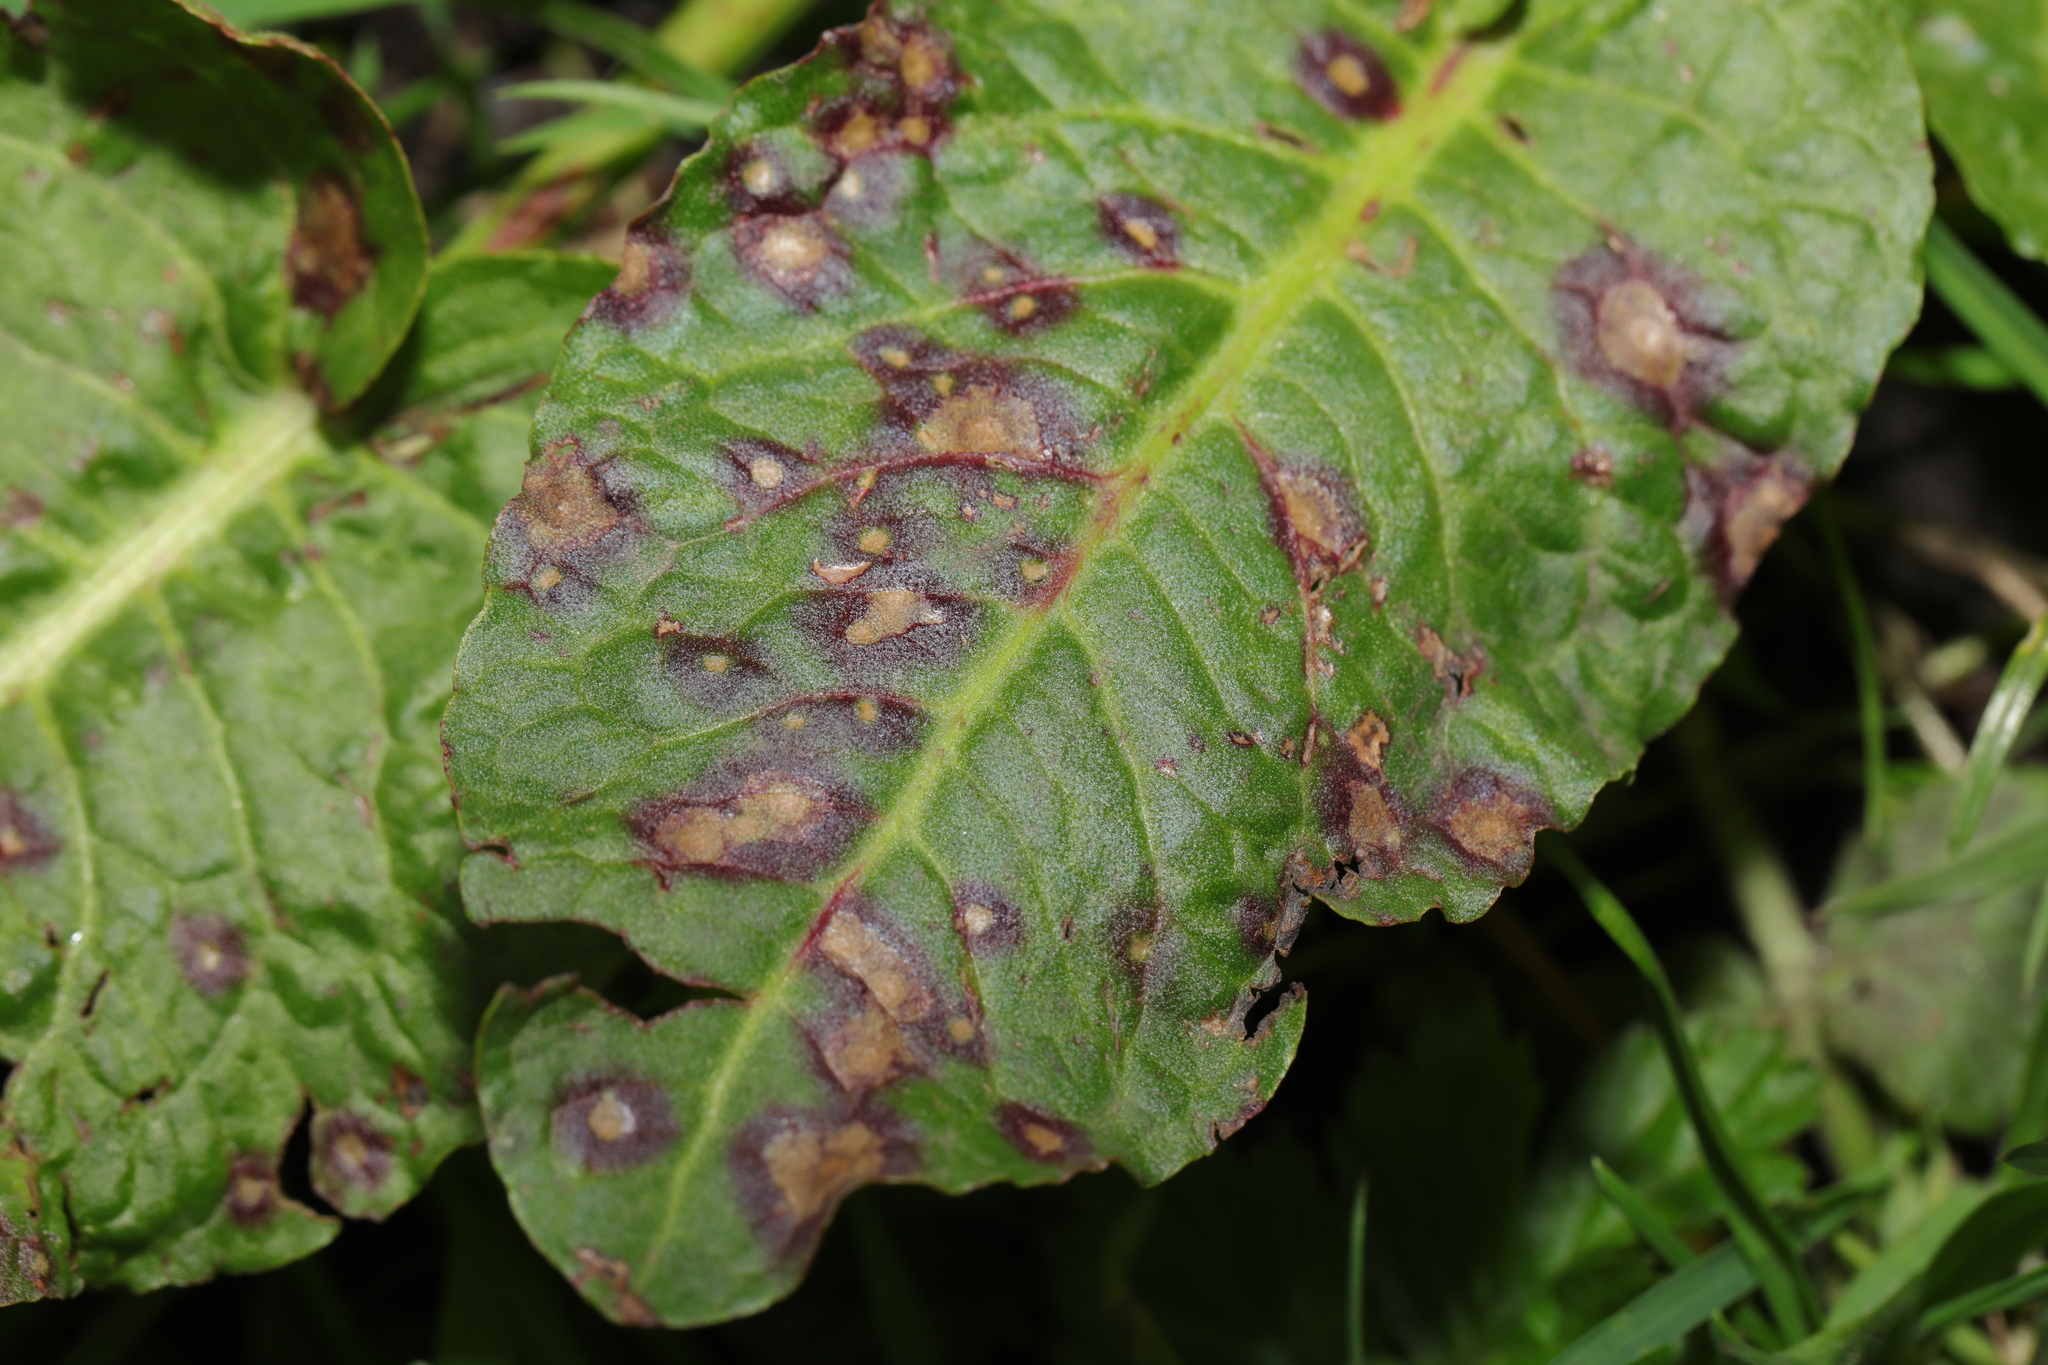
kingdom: Fungi
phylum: Ascomycota
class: Dothideomycetes
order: Mycosphaerellales
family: Mycosphaerellaceae
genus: Ramularia
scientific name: Ramularia rubella
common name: Red dock spot
